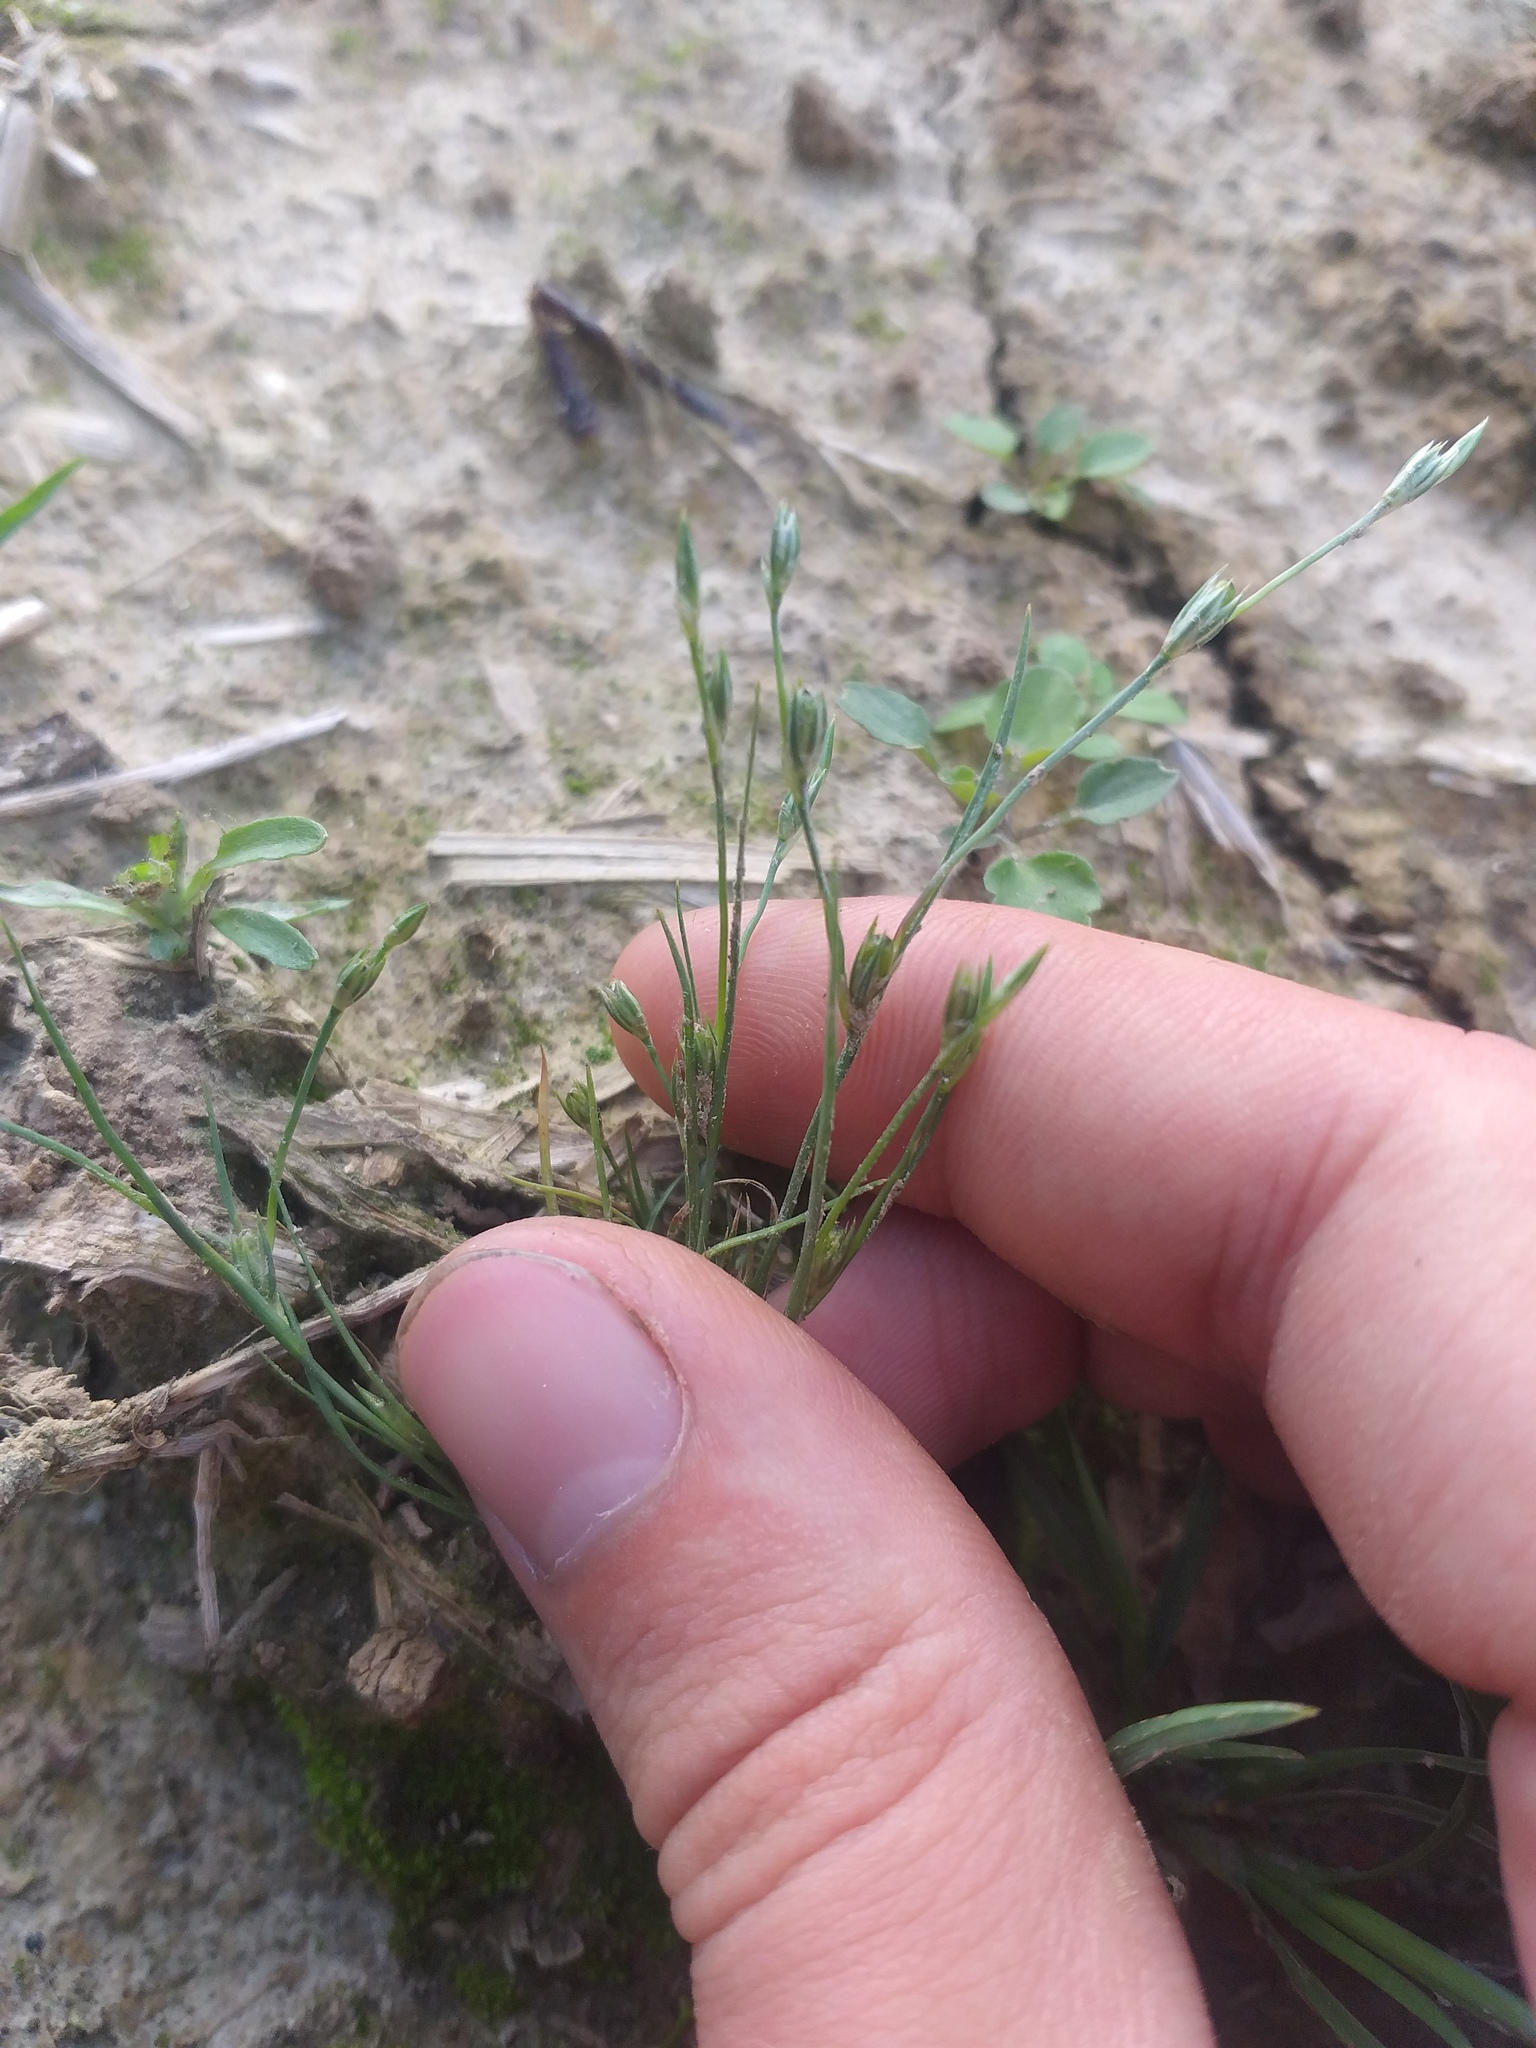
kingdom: Plantae
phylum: Tracheophyta
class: Liliopsida
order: Poales
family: Juncaceae
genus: Juncus
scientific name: Juncus bufonius
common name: Toad rush
